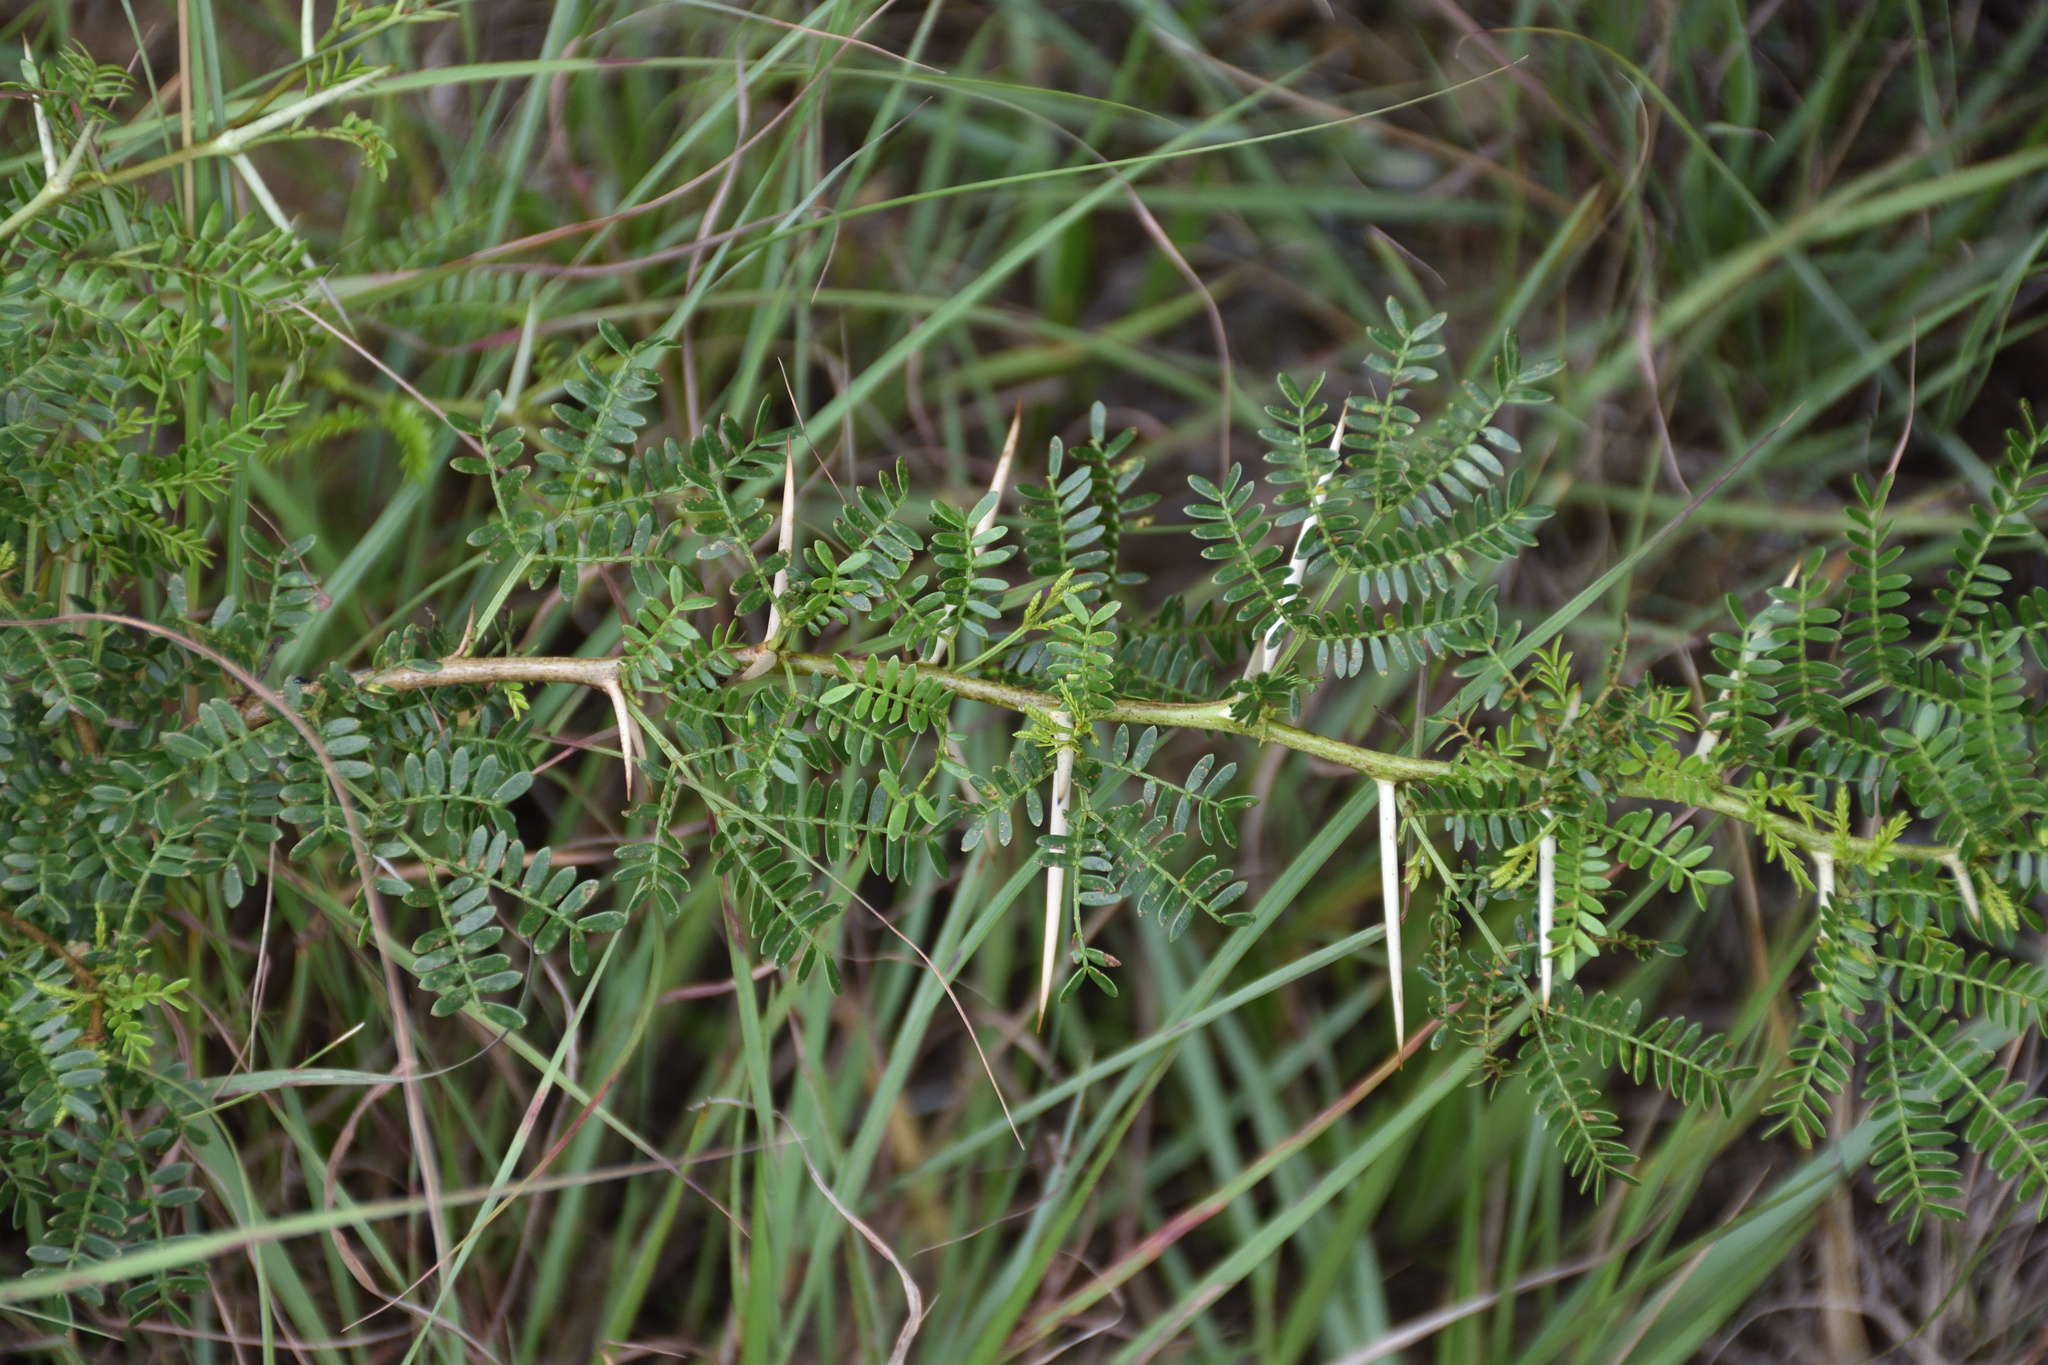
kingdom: Plantae
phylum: Tracheophyta
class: Magnoliopsida
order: Fabales
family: Fabaceae
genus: Vachellia
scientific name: Vachellia karroo
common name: Sweet thorn
